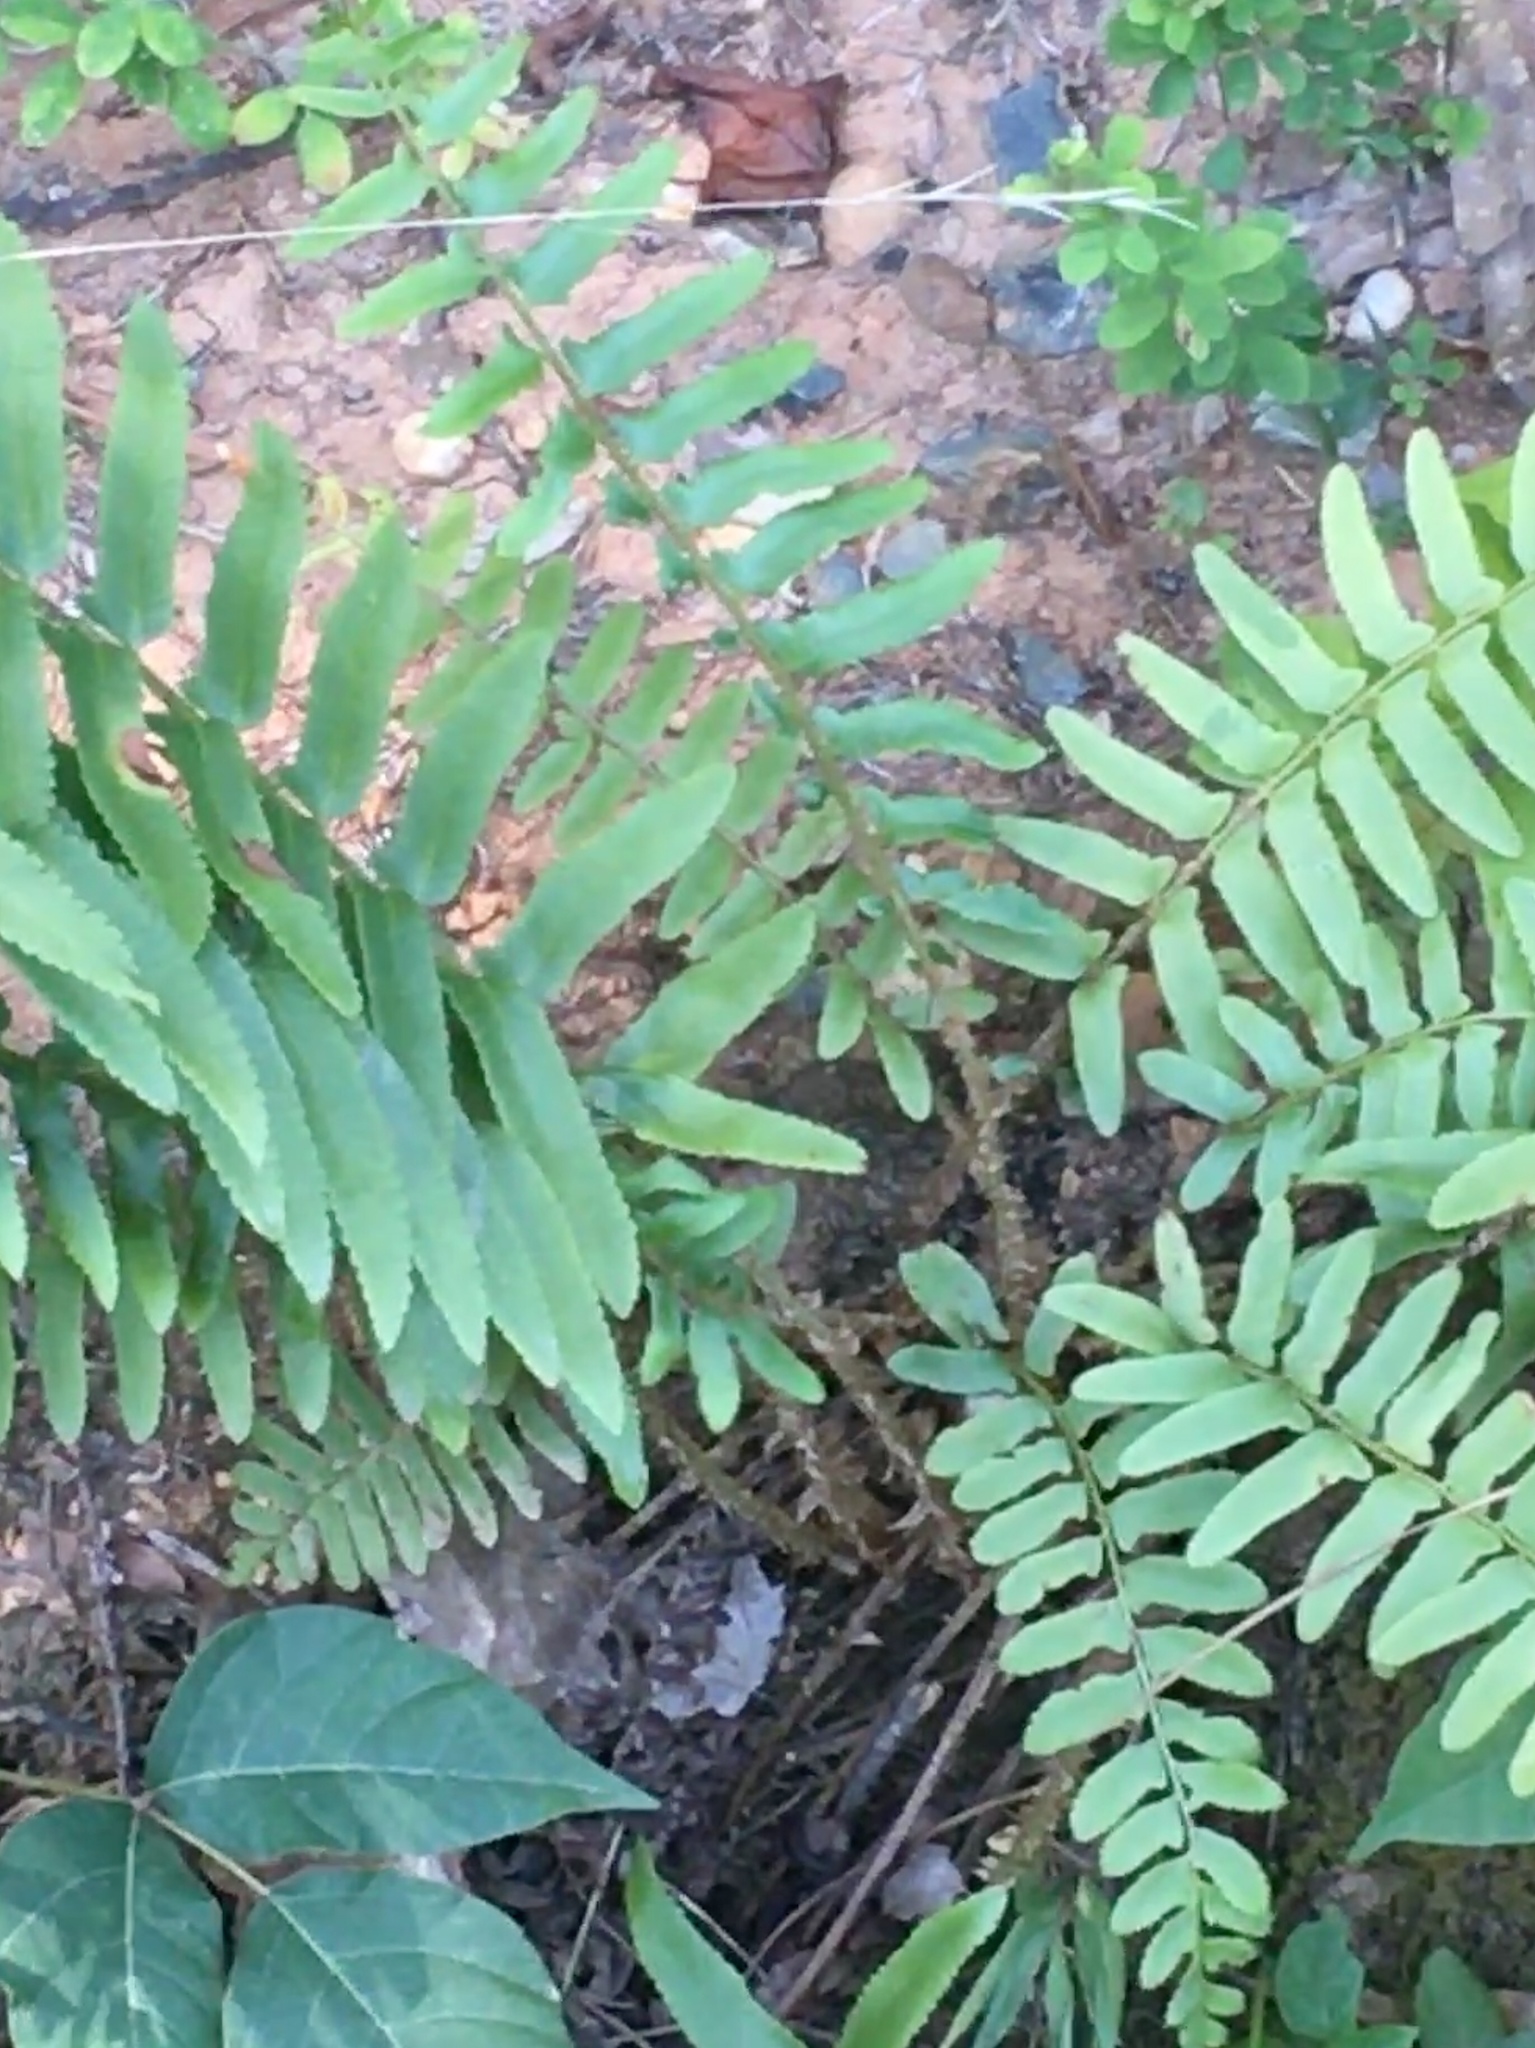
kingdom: Plantae
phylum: Tracheophyta
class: Polypodiopsida
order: Polypodiales
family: Dryopteridaceae
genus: Polystichum
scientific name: Polystichum acrostichoides
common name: Christmas fern
